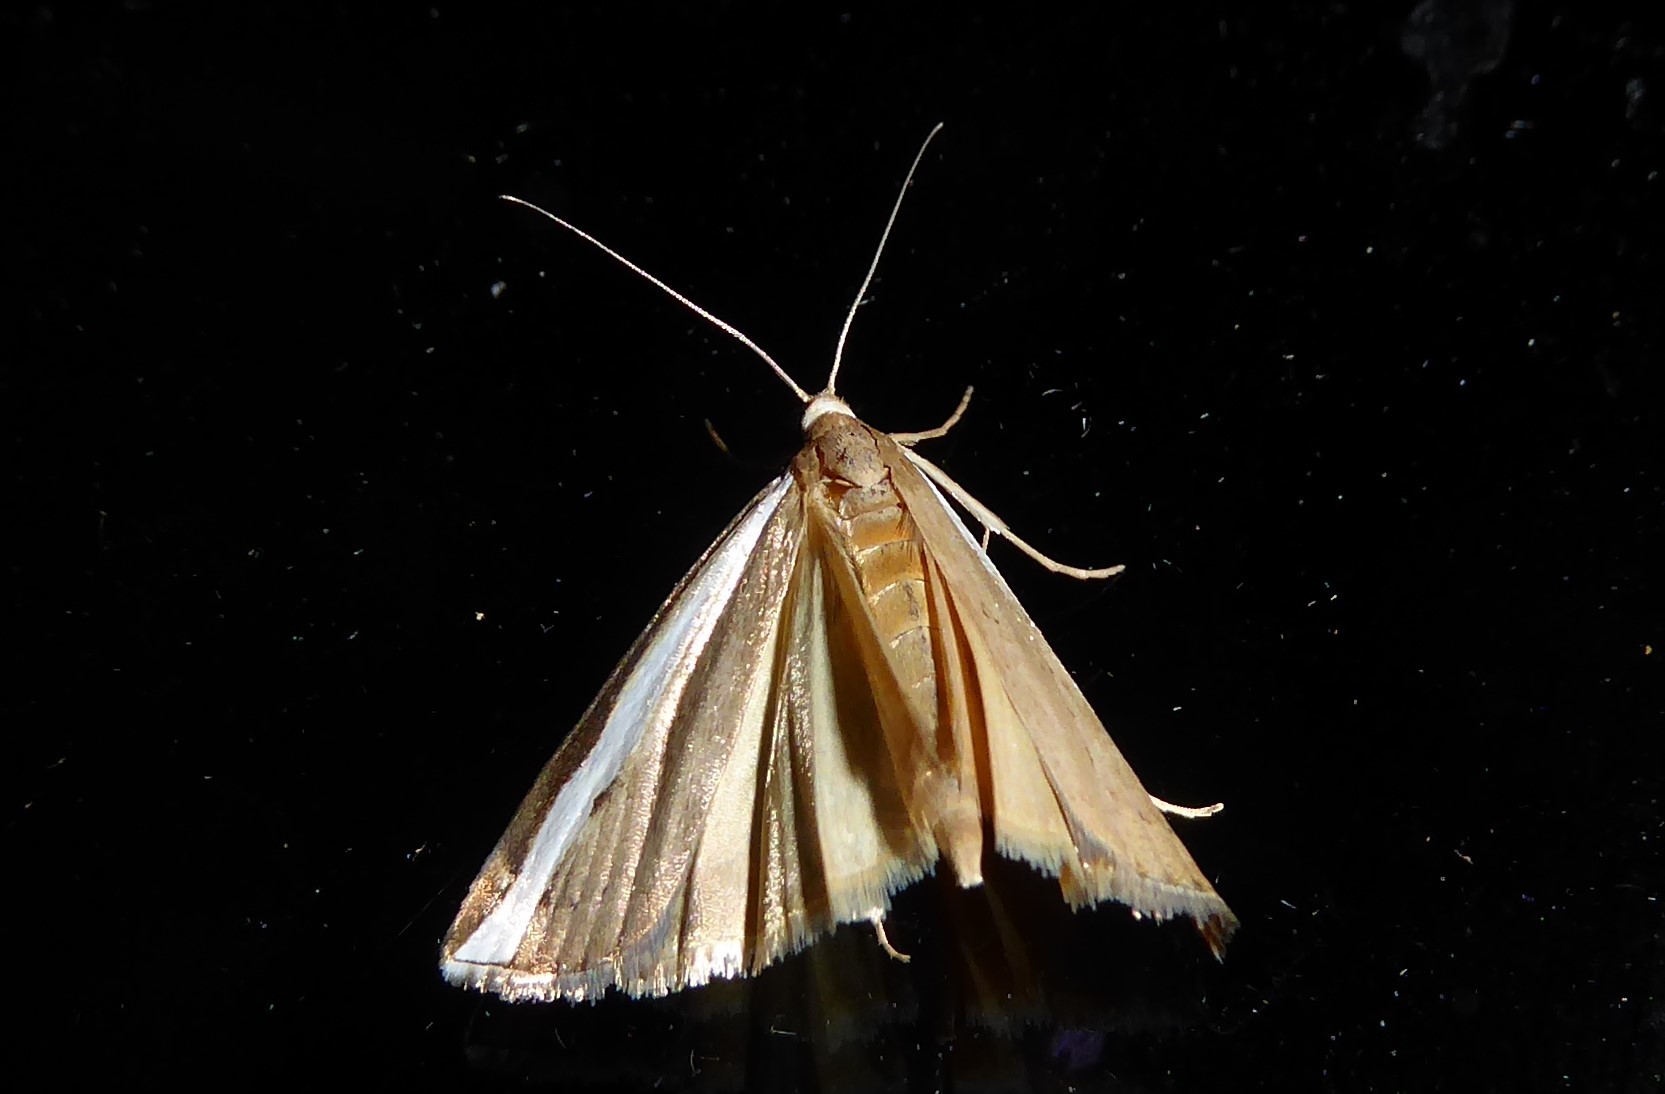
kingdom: Animalia
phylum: Arthropoda
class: Insecta
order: Lepidoptera
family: Crambidae
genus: Orocrambus
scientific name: Orocrambus flexuosellus
